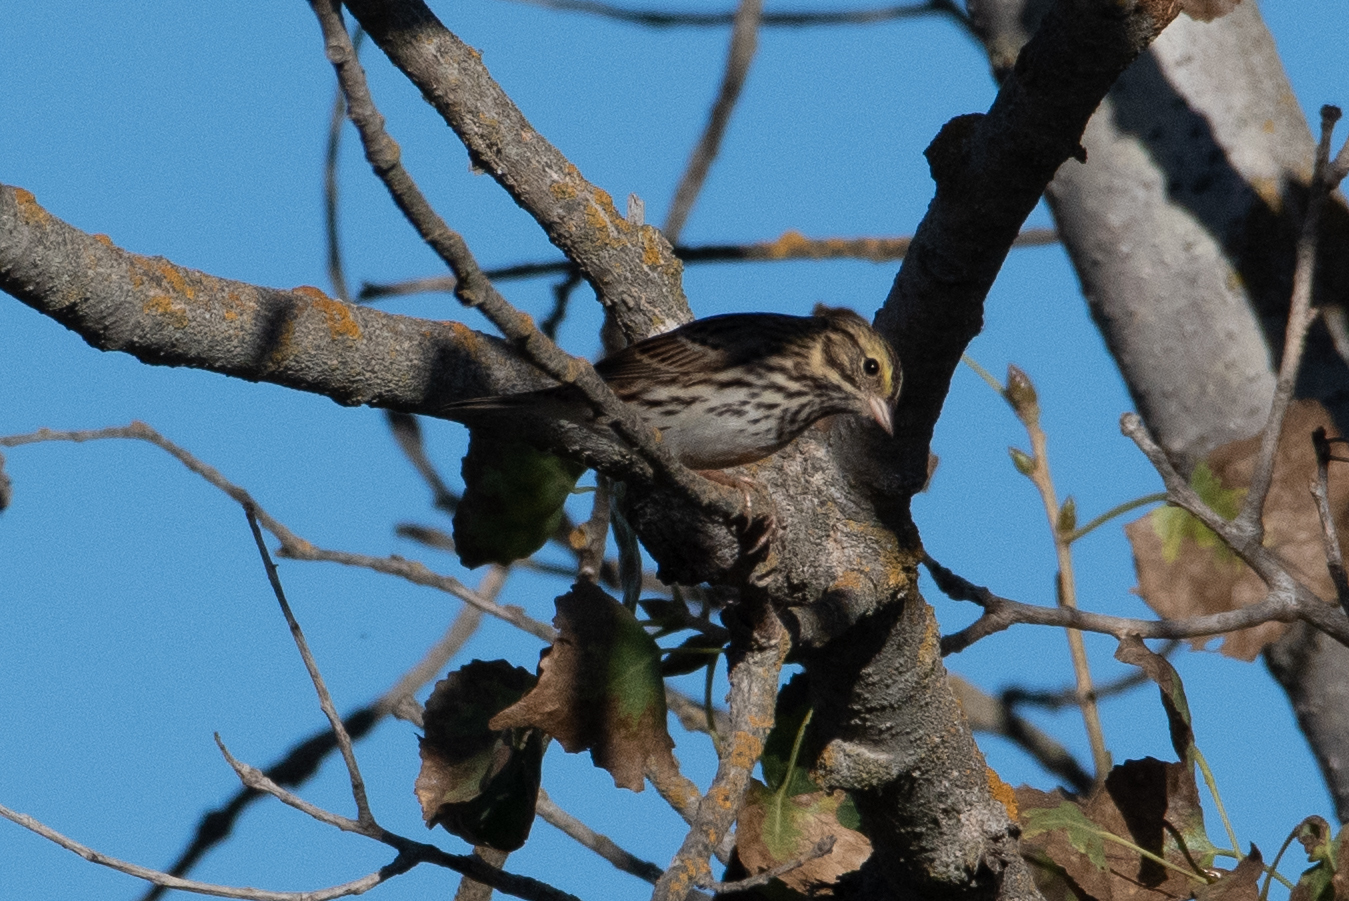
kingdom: Animalia
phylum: Chordata
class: Aves
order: Passeriformes
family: Passerellidae
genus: Passerculus
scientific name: Passerculus sandwichensis
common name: Savannah sparrow
